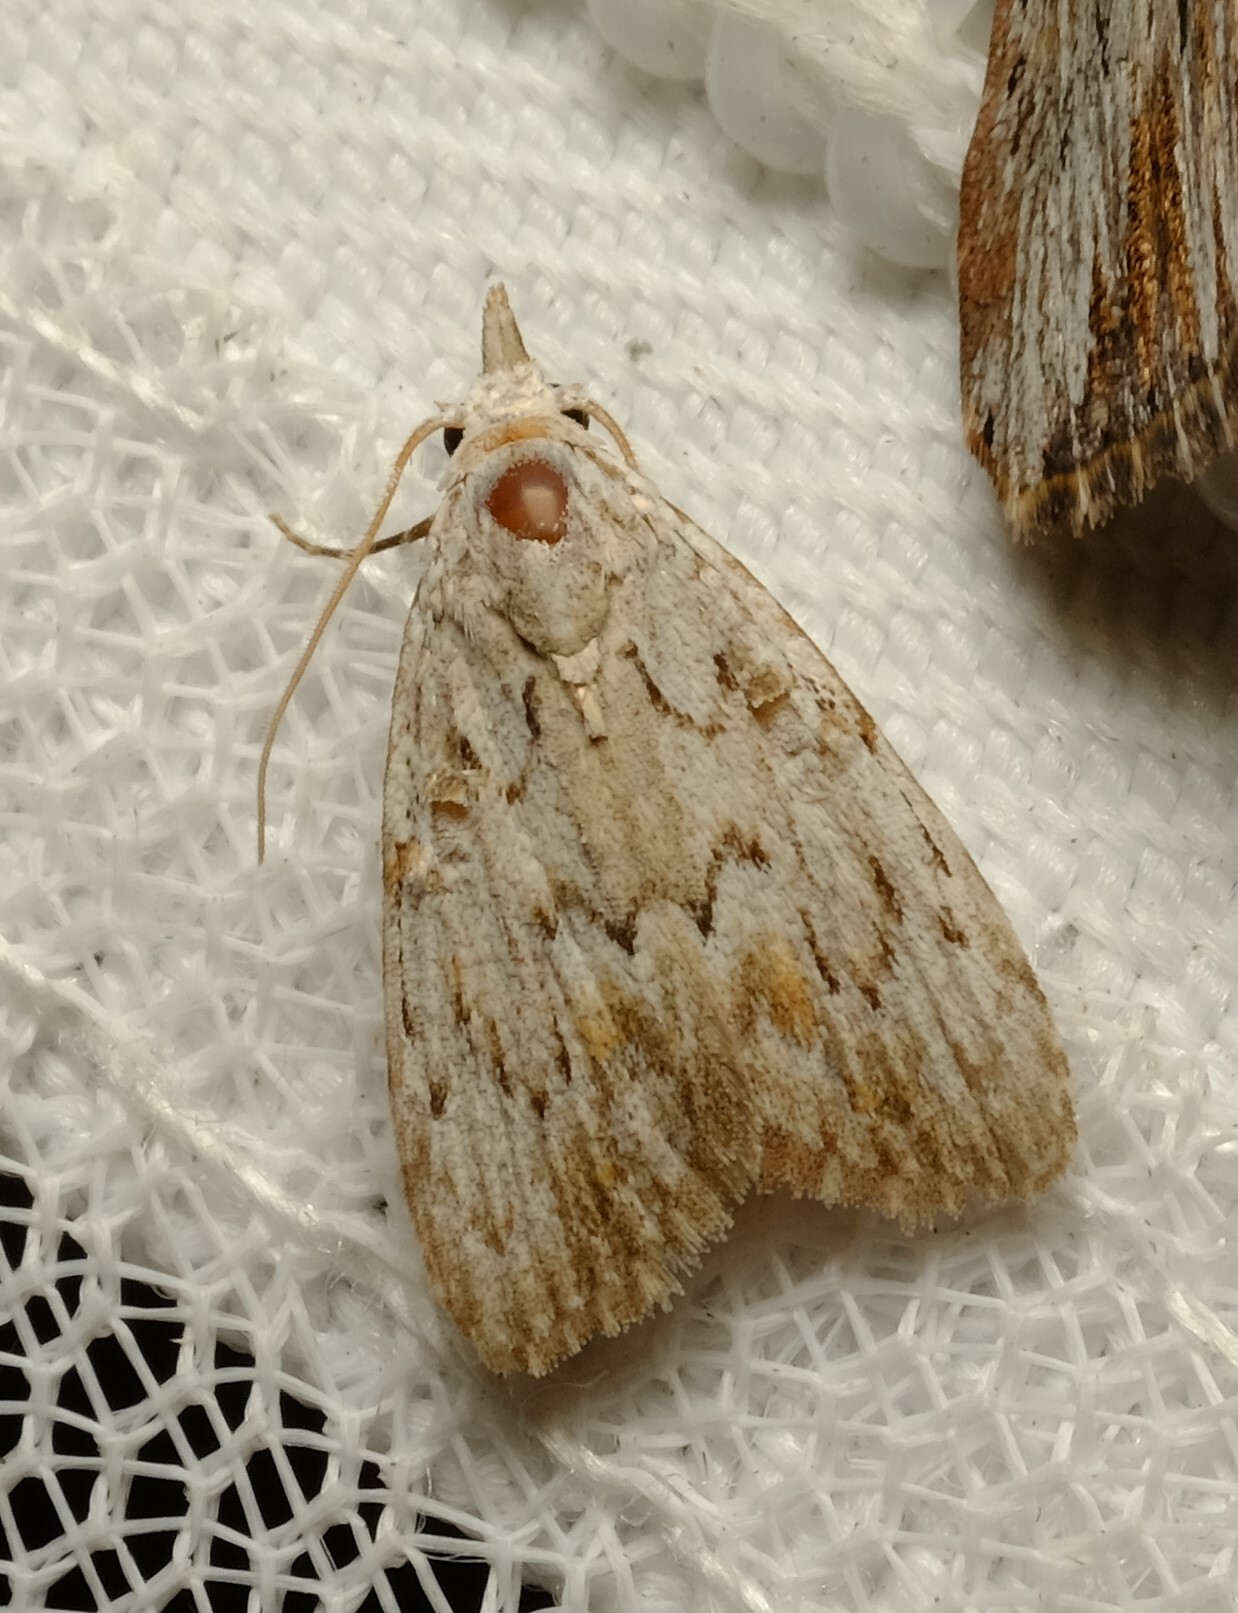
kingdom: Animalia
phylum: Arthropoda
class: Insecta
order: Lepidoptera
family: Nolidae
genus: Nola
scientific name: Nola vernalis
